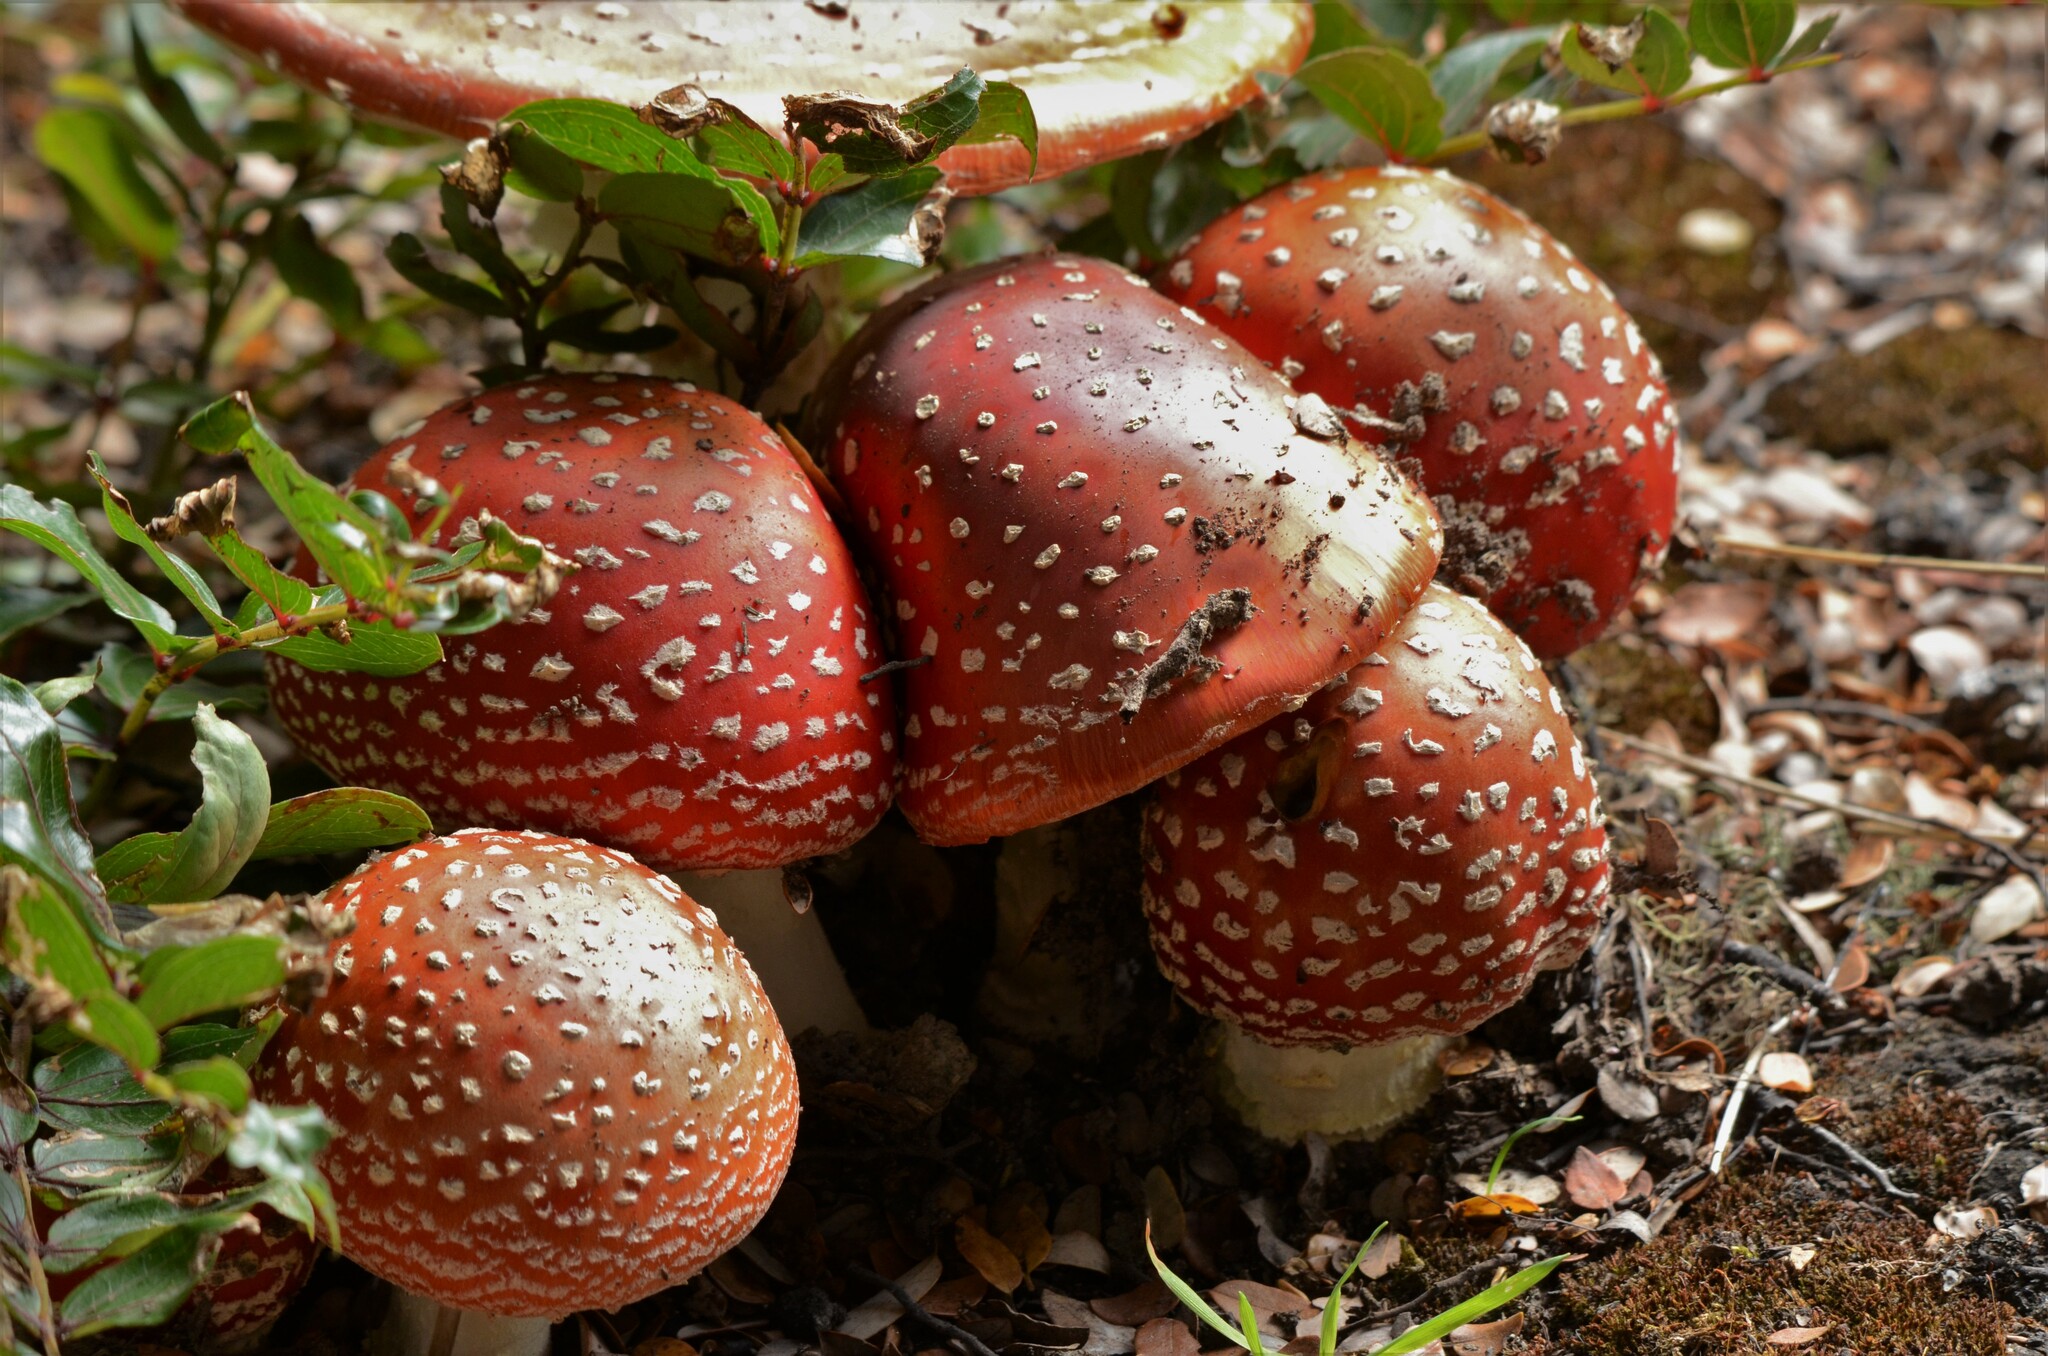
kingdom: Fungi
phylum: Basidiomycota
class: Agaricomycetes
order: Agaricales
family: Amanitaceae
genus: Amanita
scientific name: Amanita muscaria
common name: Fly agaric
